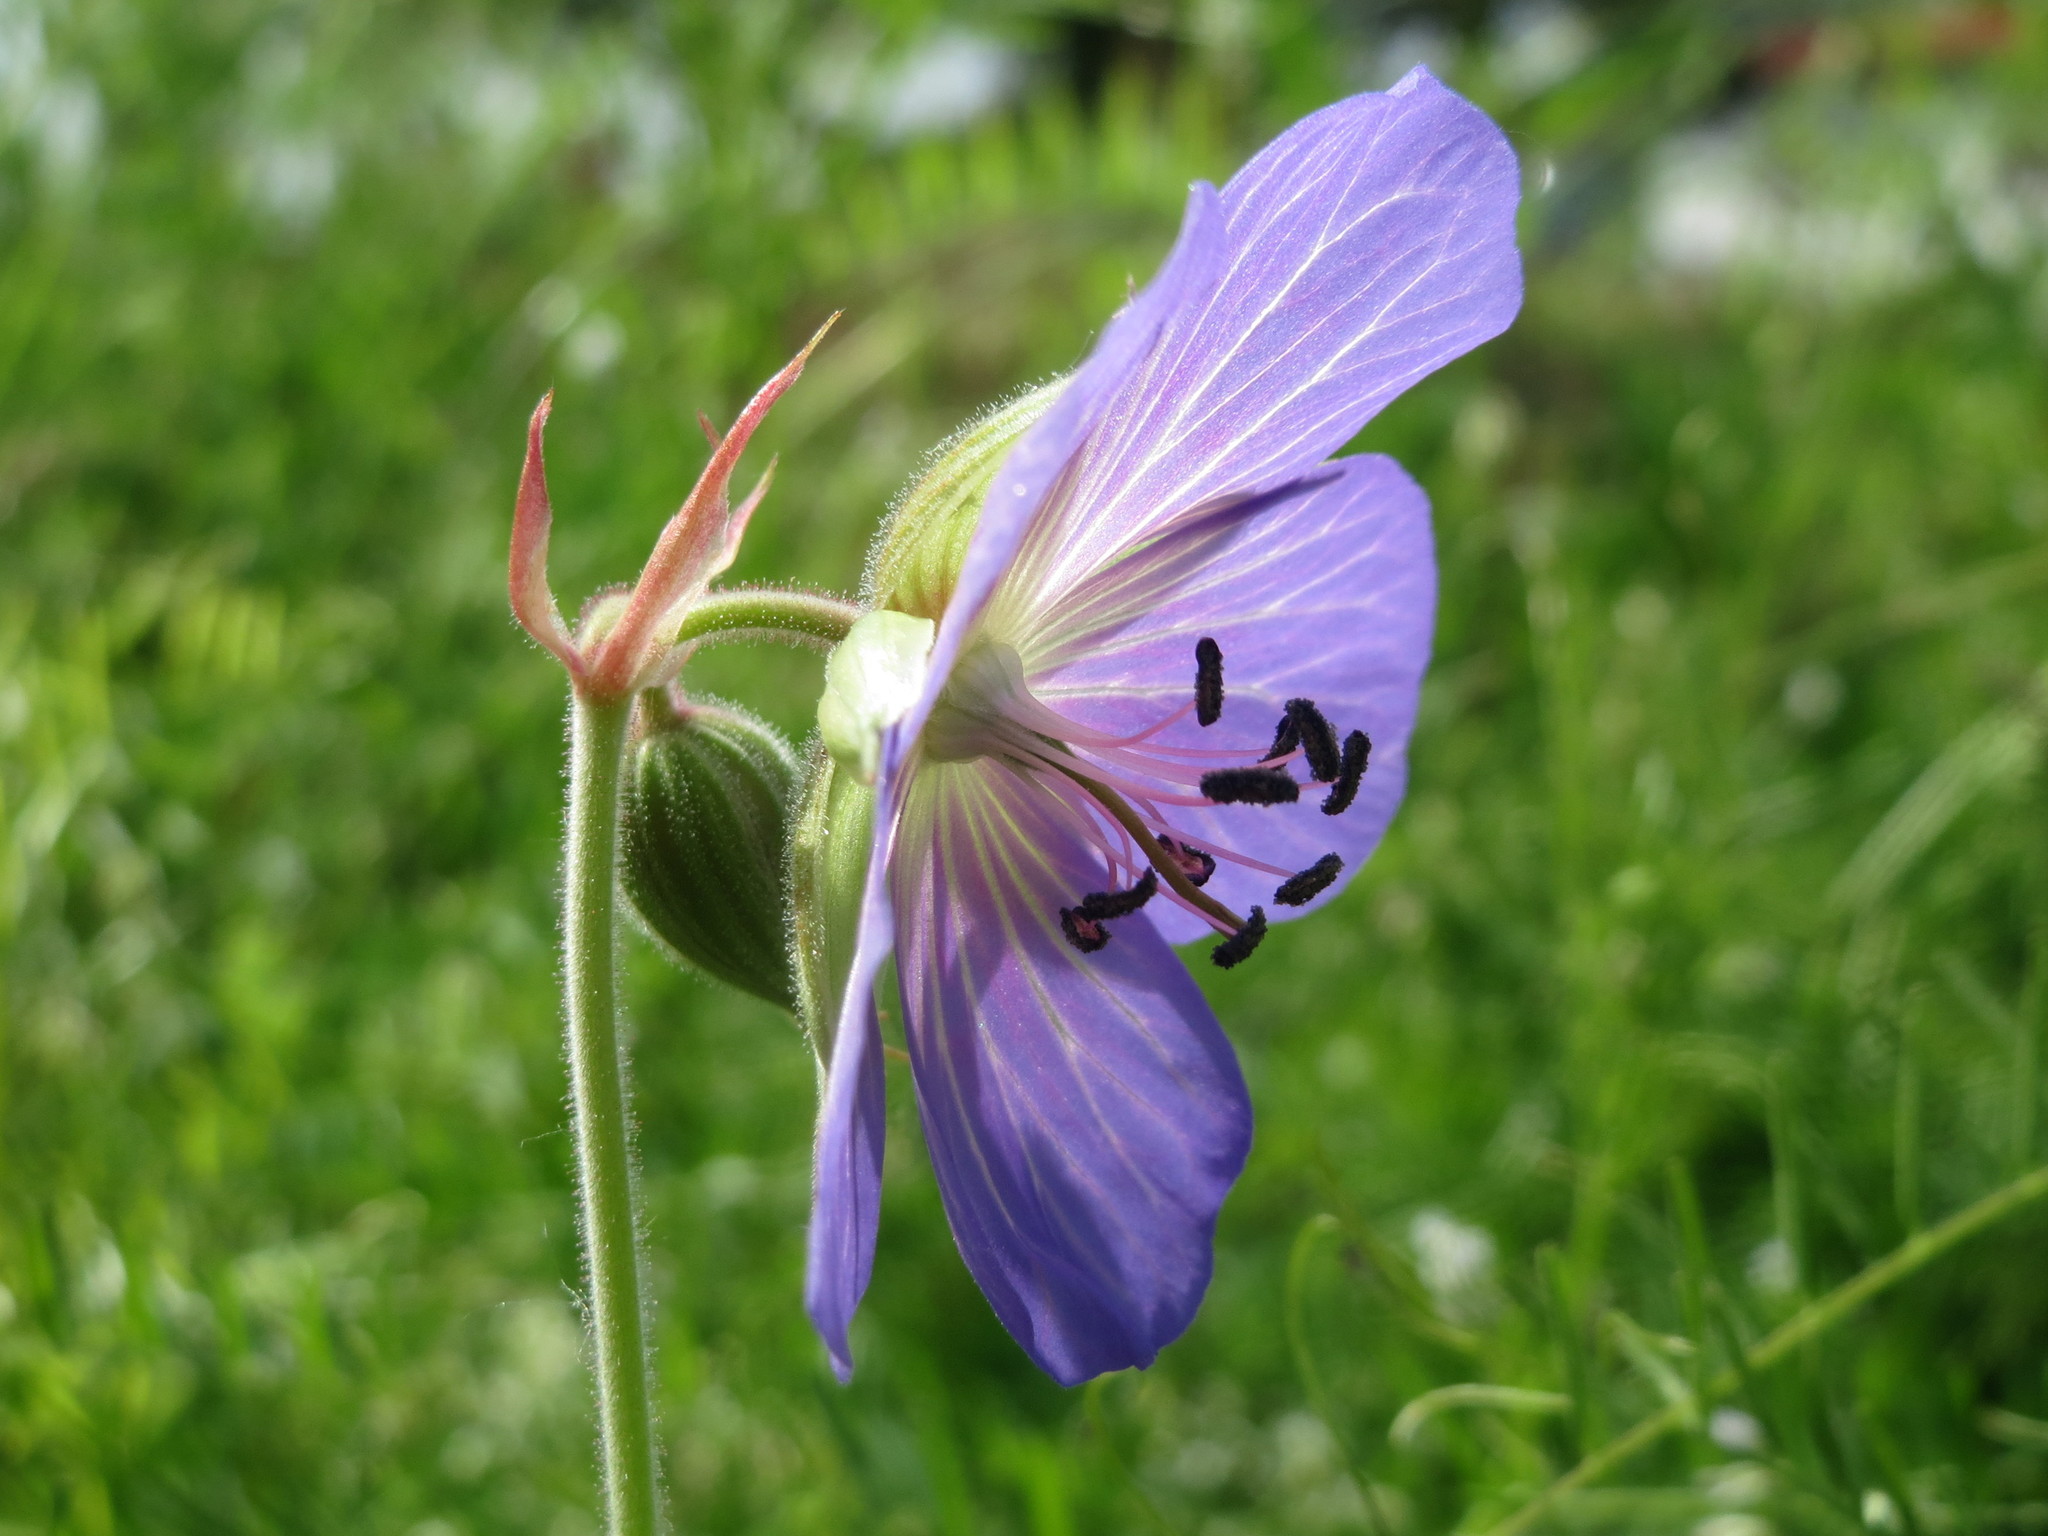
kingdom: Plantae
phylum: Tracheophyta
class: Magnoliopsida
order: Geraniales
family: Geraniaceae
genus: Geranium
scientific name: Geranium pratense
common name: Meadow crane's-bill
